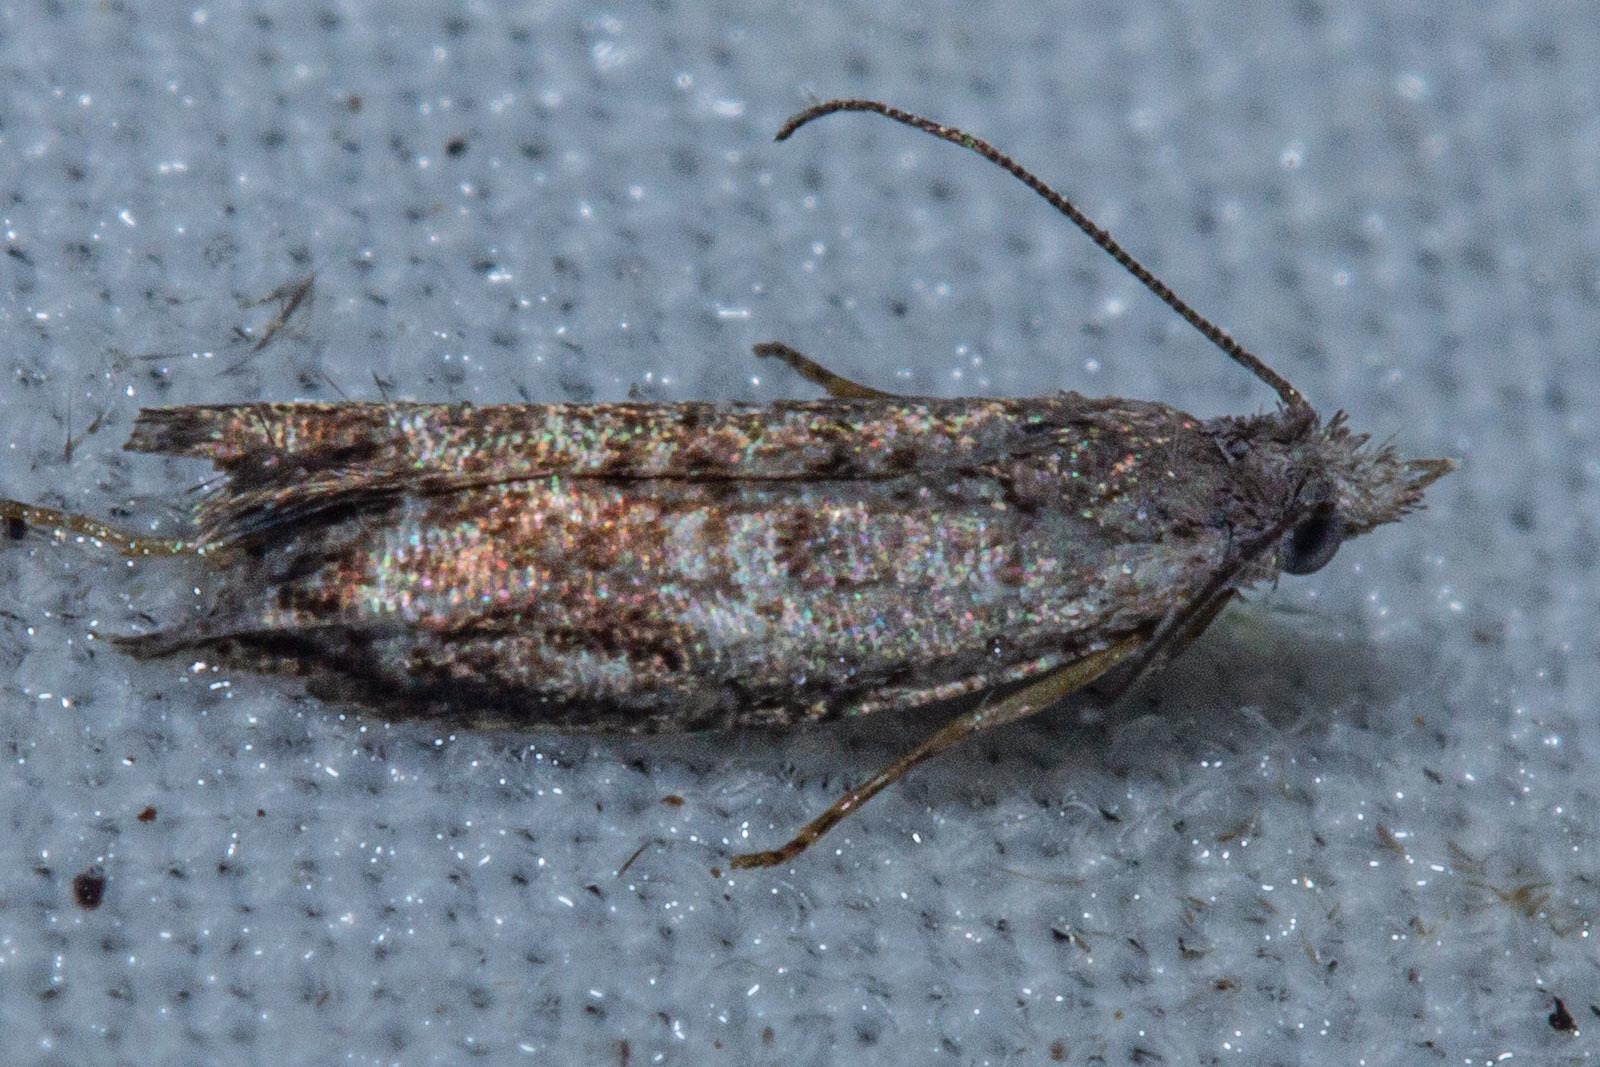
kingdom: Animalia
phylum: Arthropoda
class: Insecta
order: Lepidoptera
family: Tortricidae
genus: Holocola
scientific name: Holocola zopherana
